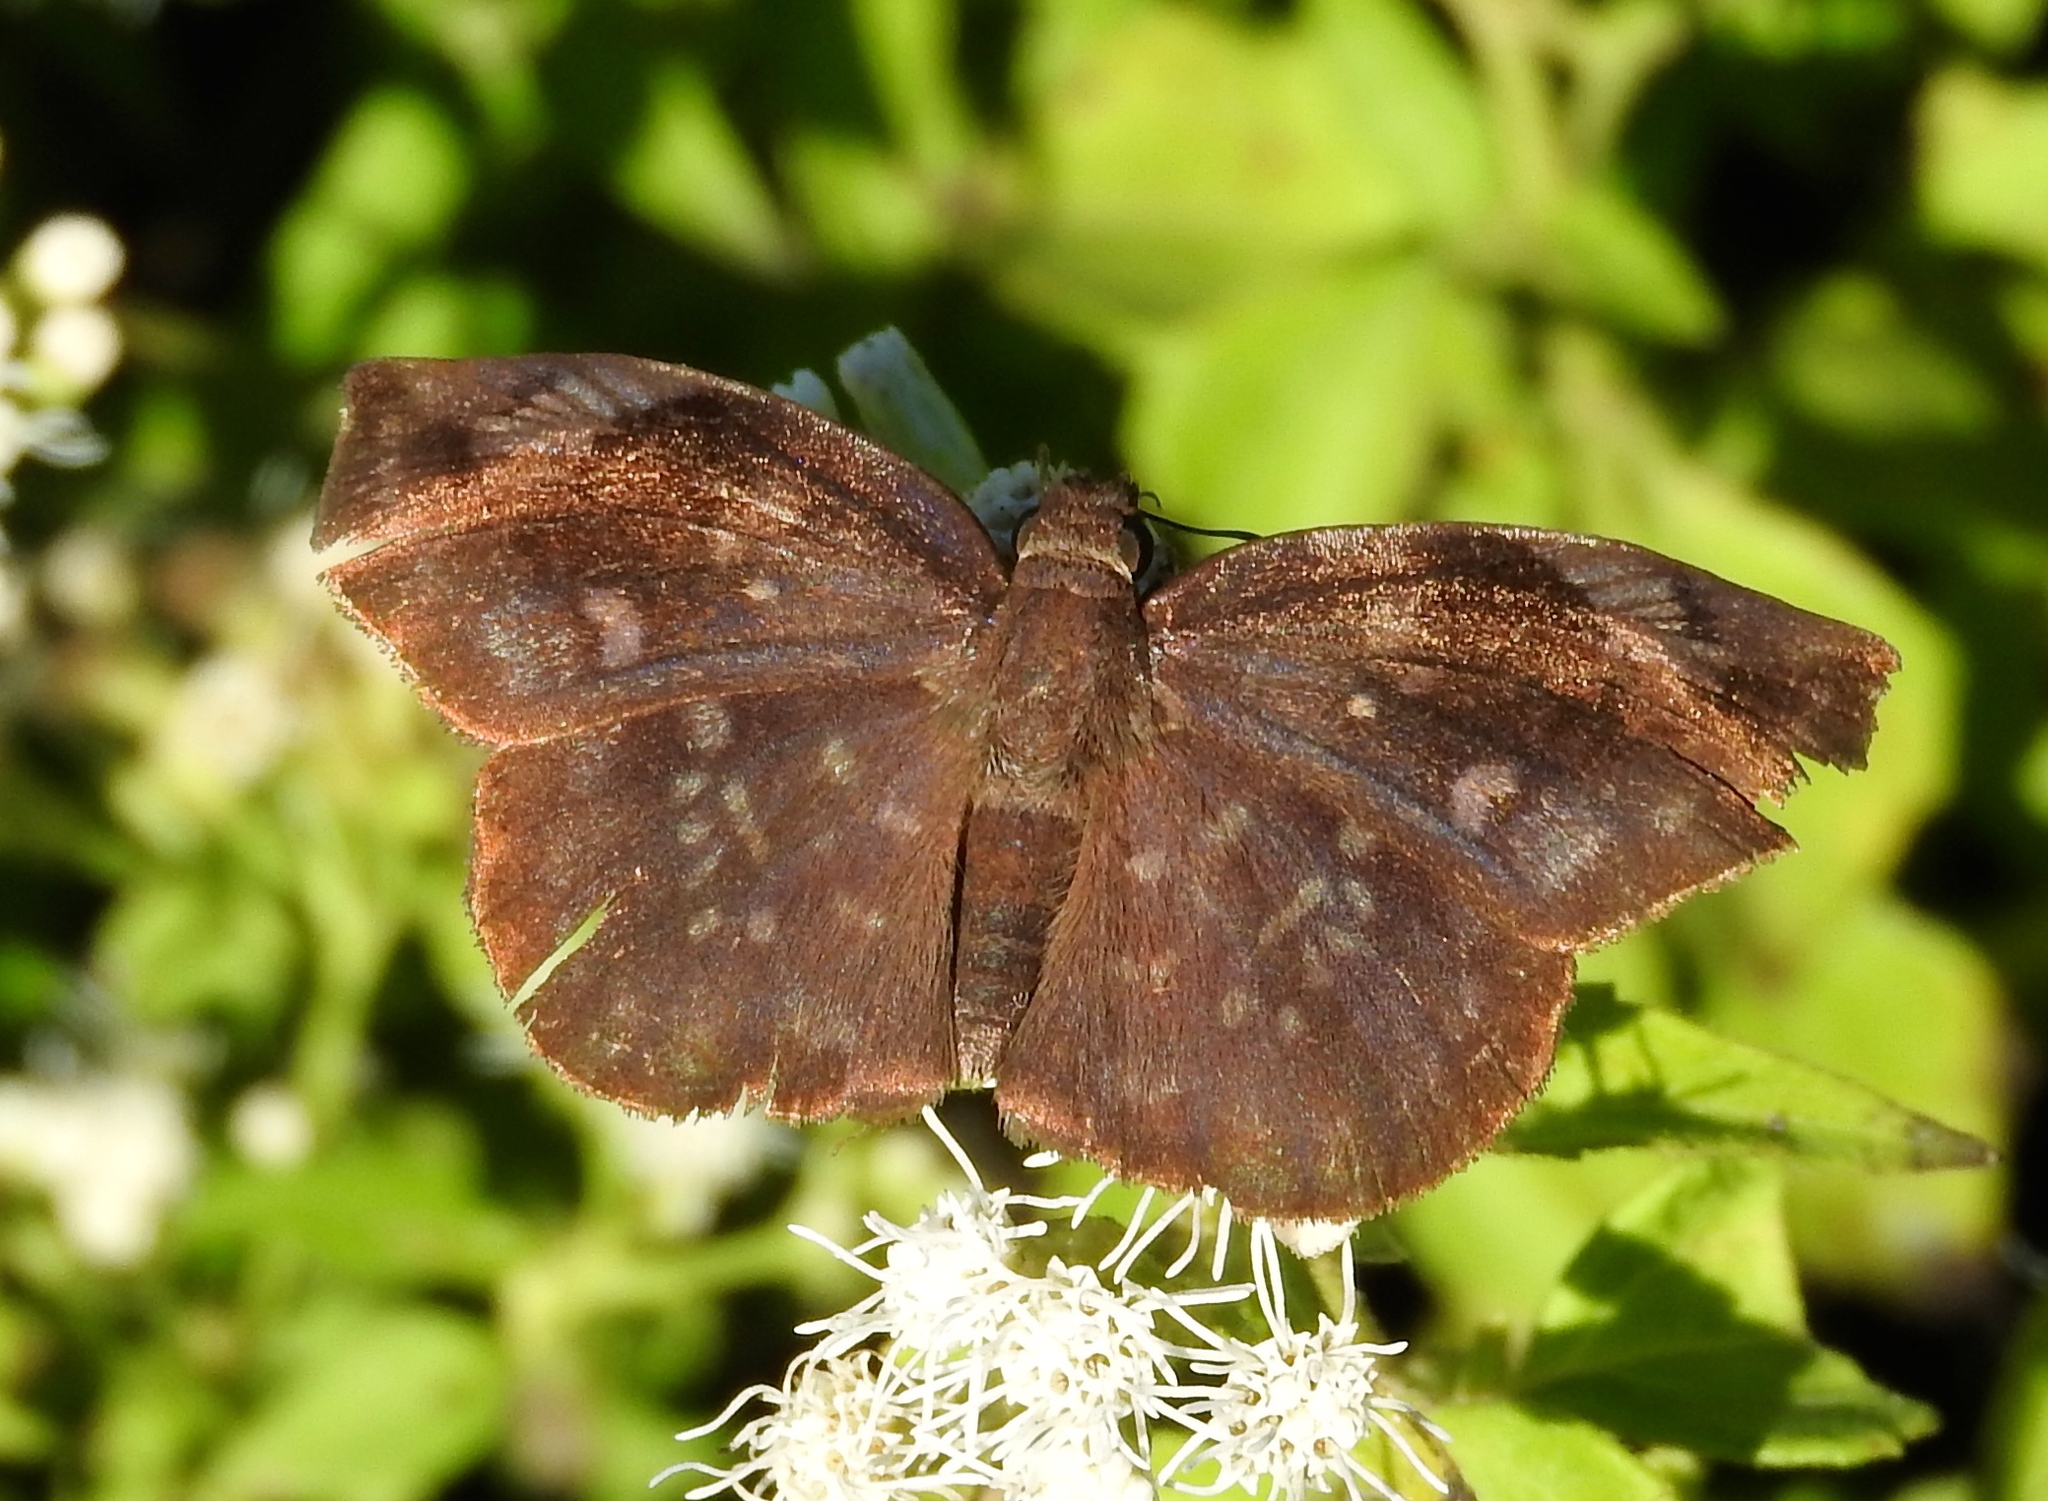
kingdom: Animalia
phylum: Arthropoda
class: Insecta
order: Lepidoptera
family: Hesperiidae
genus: Achlyodes
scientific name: Achlyodes
